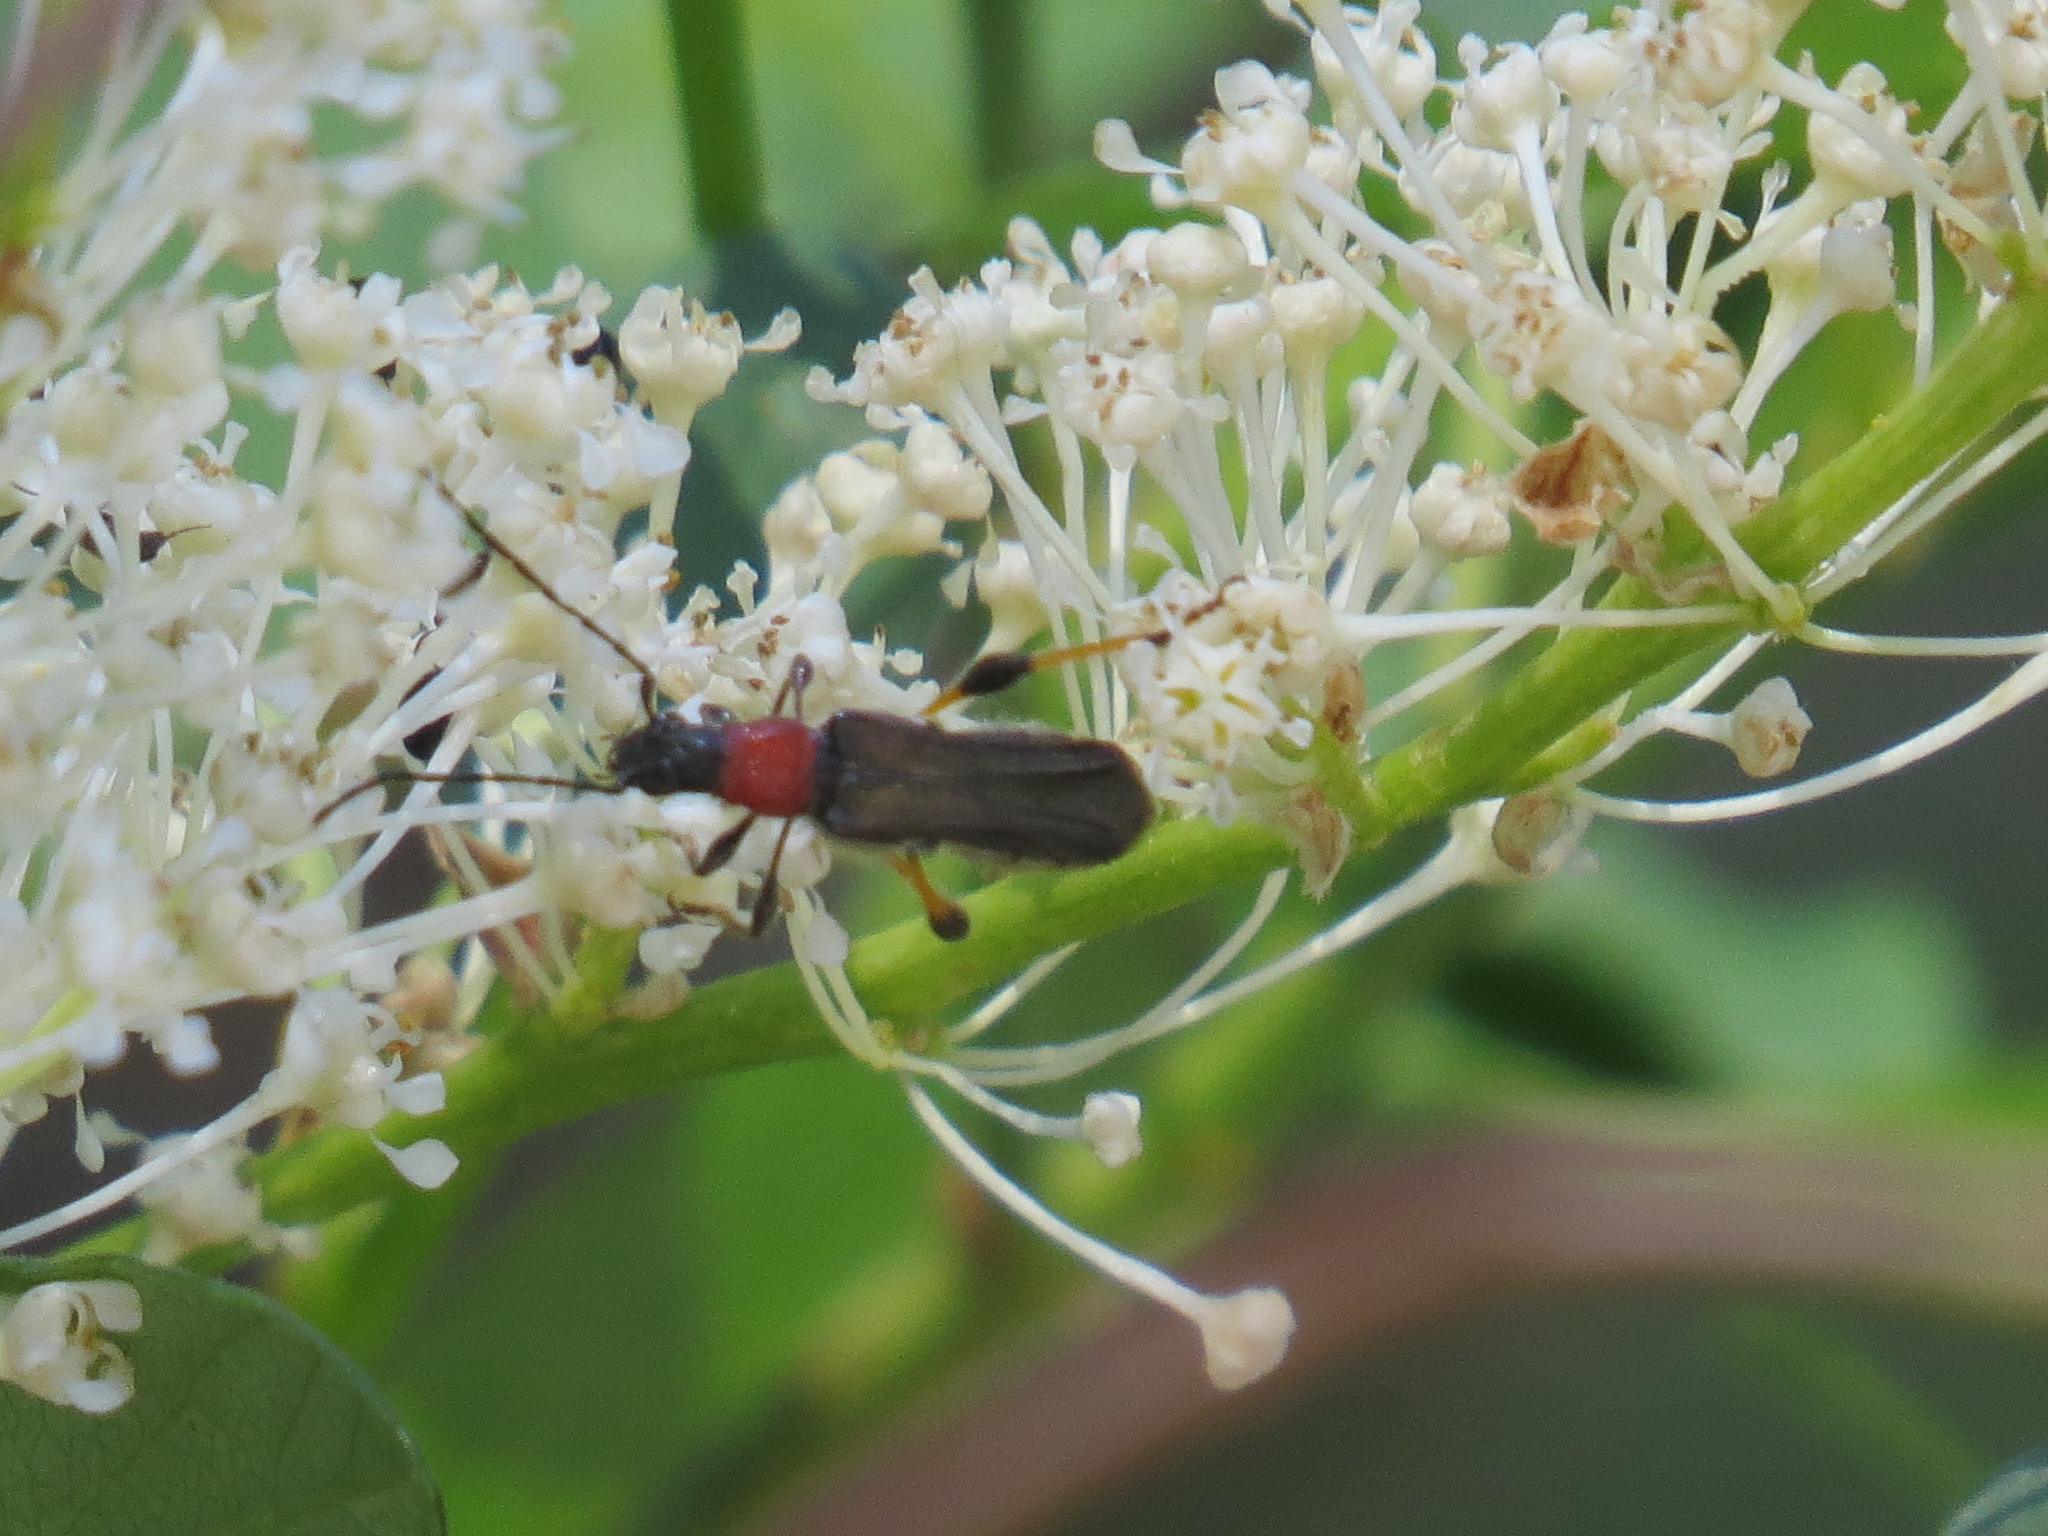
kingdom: Animalia
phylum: Arthropoda
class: Insecta
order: Coleoptera
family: Cerambycidae
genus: Callimoxys
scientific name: Callimoxys fuscipennis
